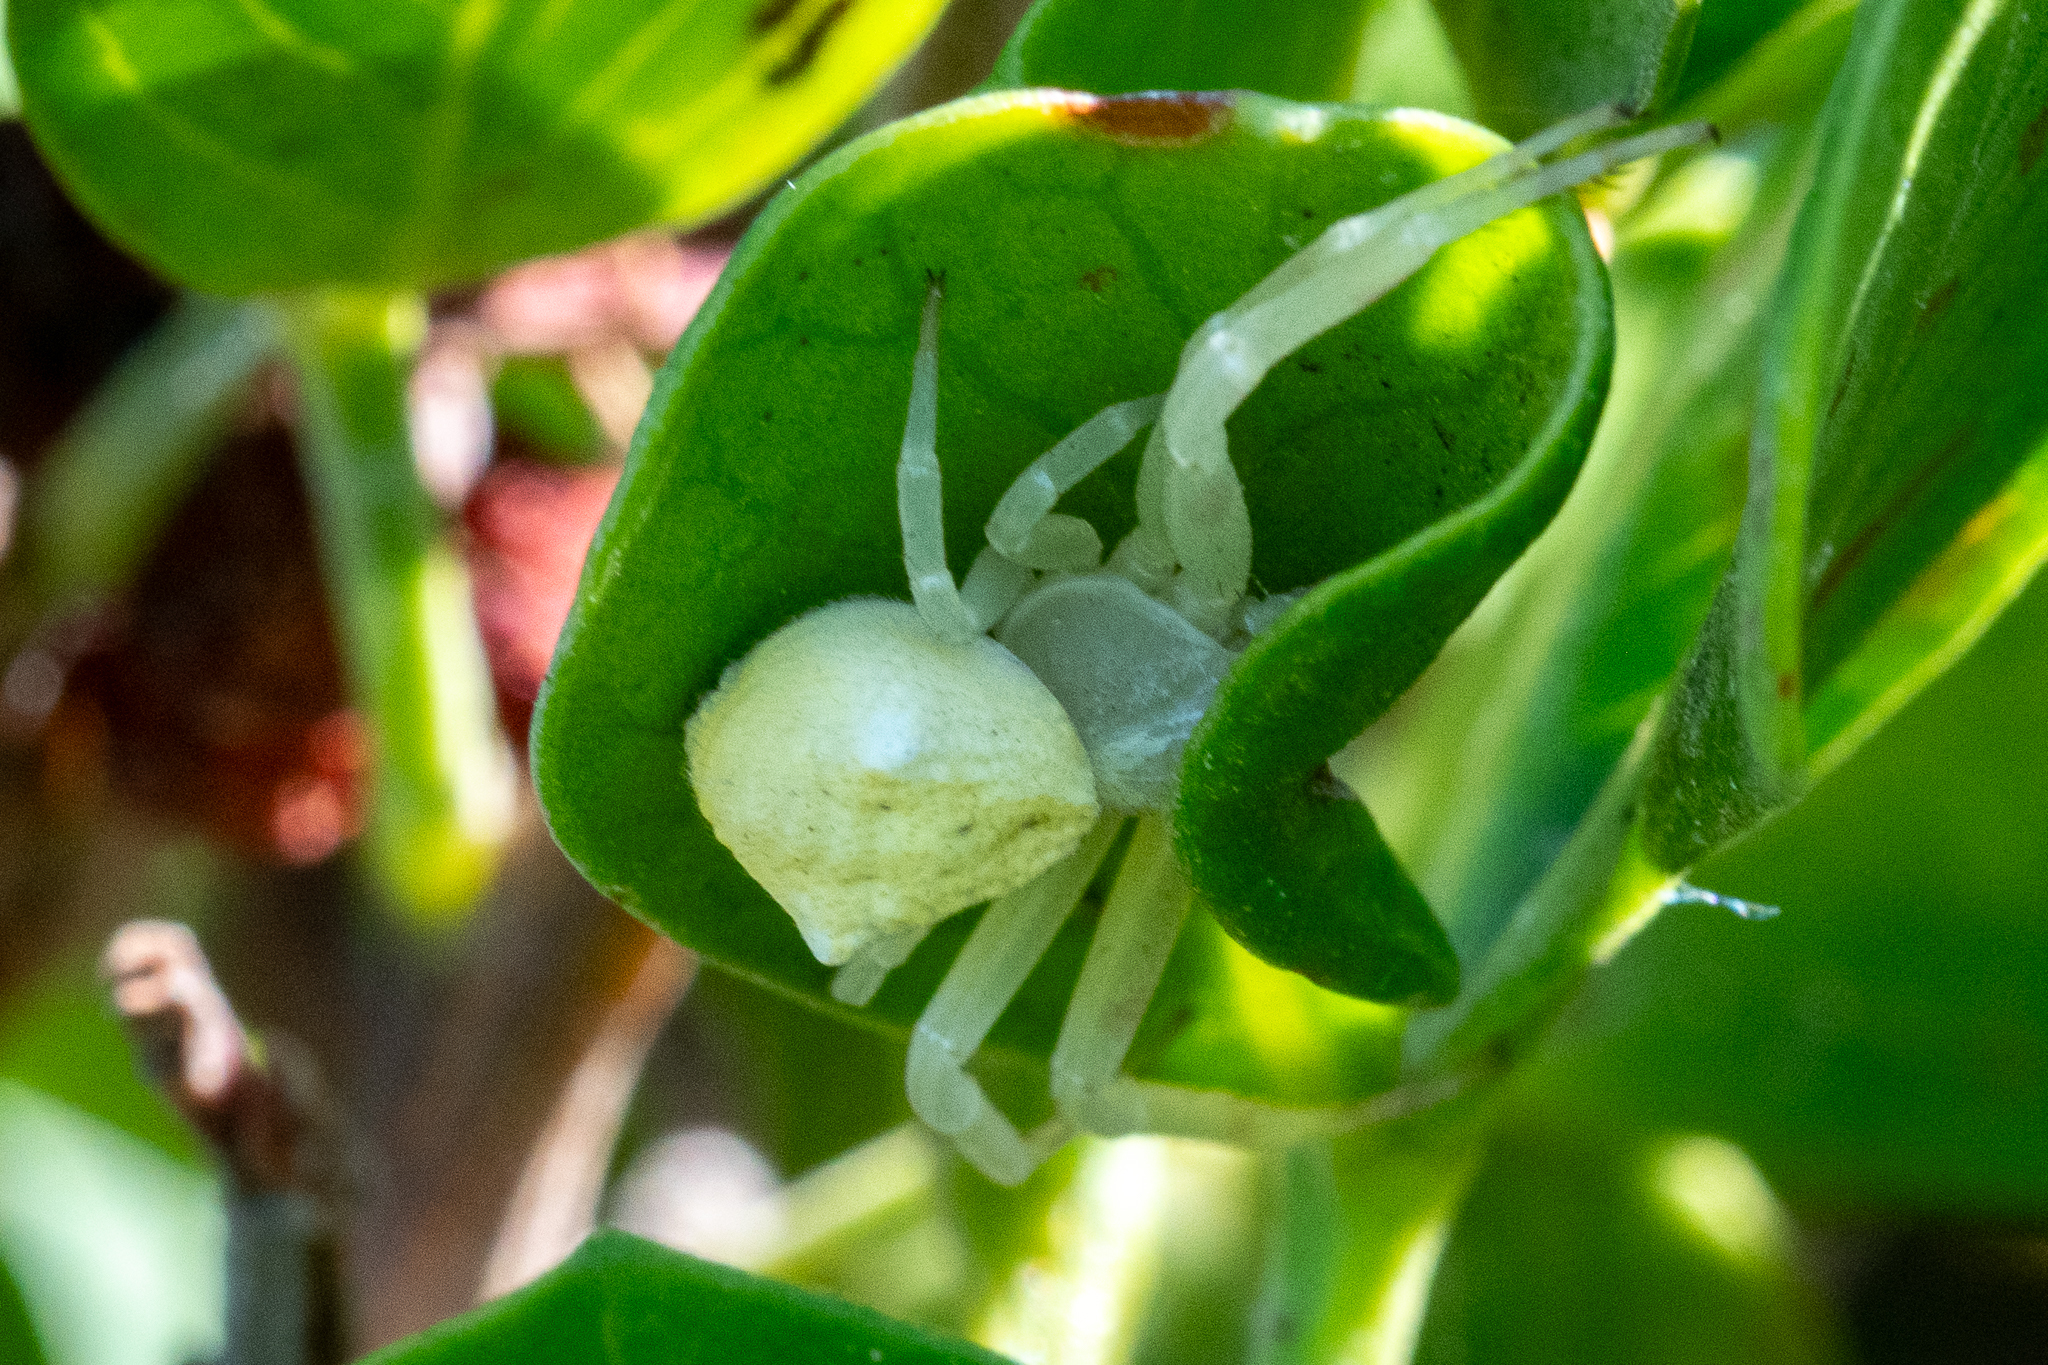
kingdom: Animalia
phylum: Arthropoda
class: Arachnida
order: Araneae
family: Thomisidae
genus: Thomisus
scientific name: Thomisus citrinellus
